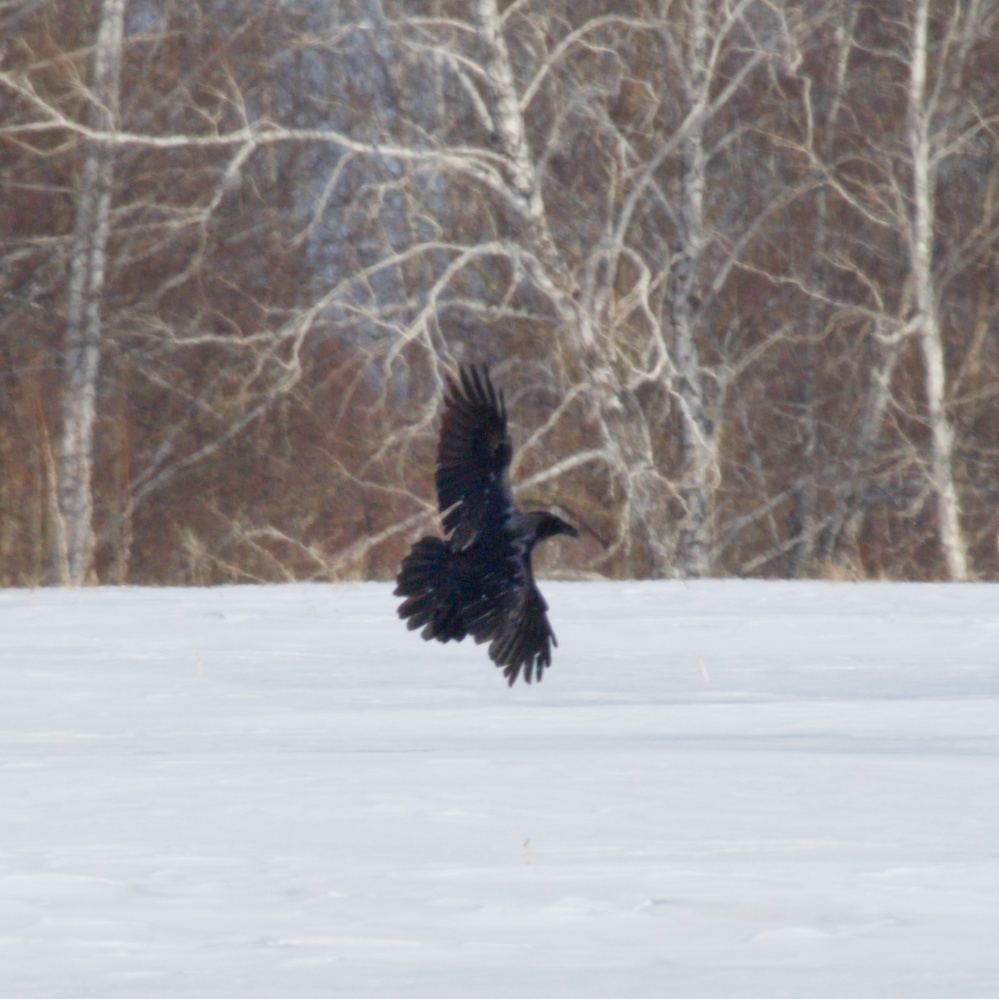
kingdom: Animalia
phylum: Chordata
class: Aves
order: Passeriformes
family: Corvidae
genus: Corvus
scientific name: Corvus corax
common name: Common raven
